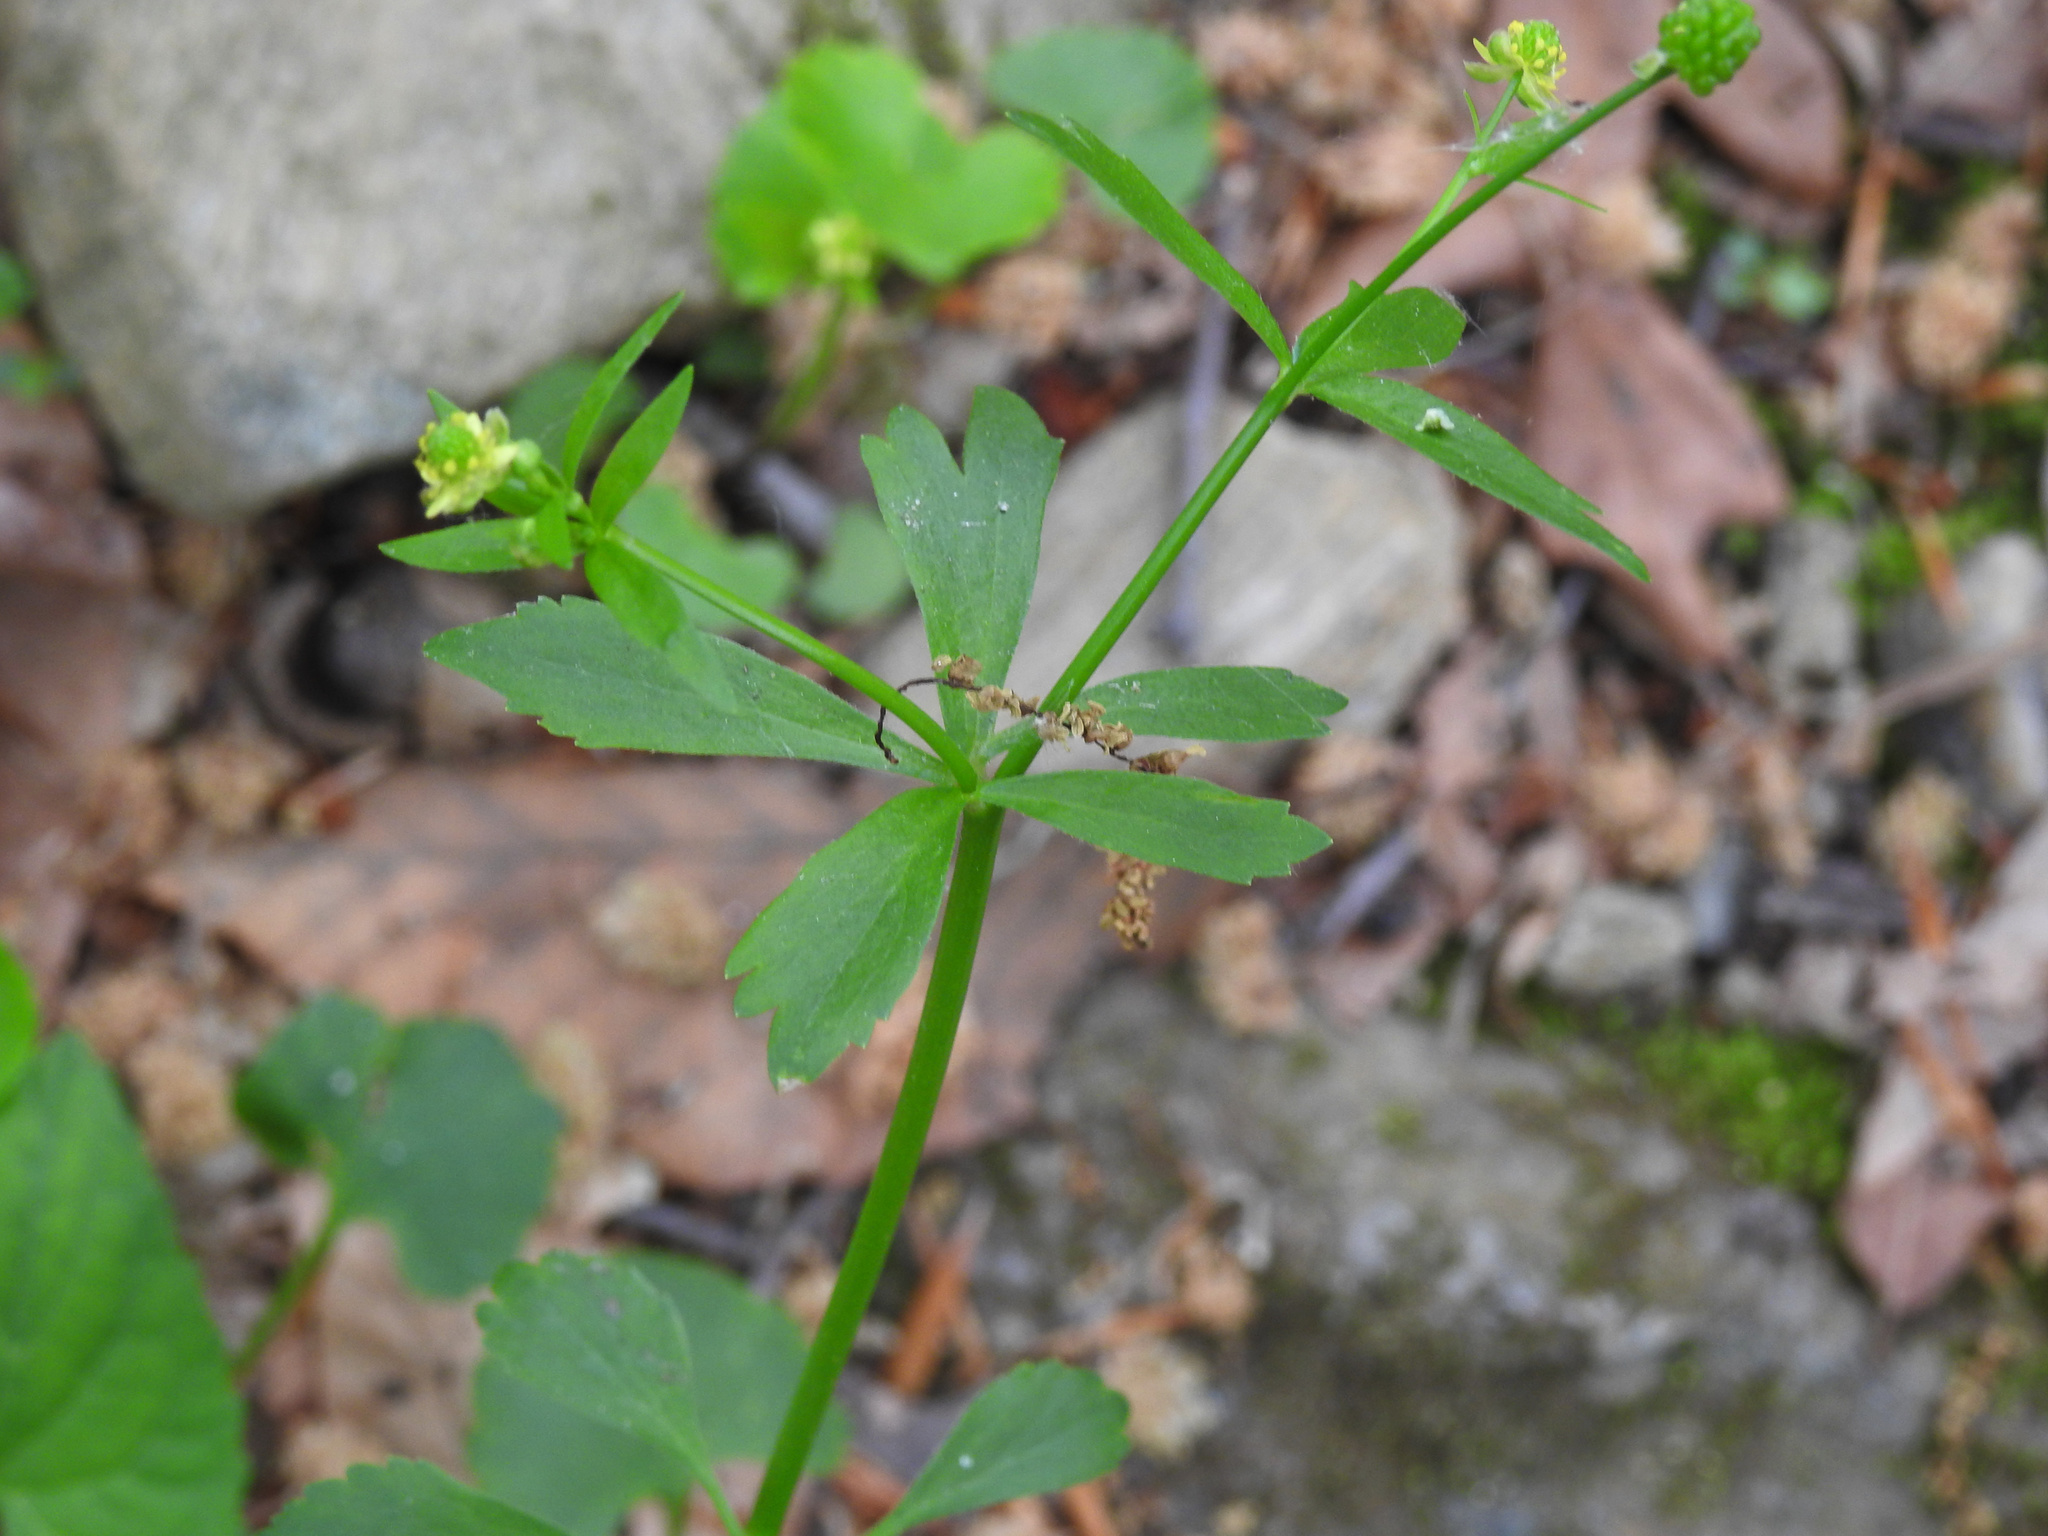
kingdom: Plantae
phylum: Tracheophyta
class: Magnoliopsida
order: Ranunculales
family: Ranunculaceae
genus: Ranunculus
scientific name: Ranunculus abortivus
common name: Early wood buttercup
